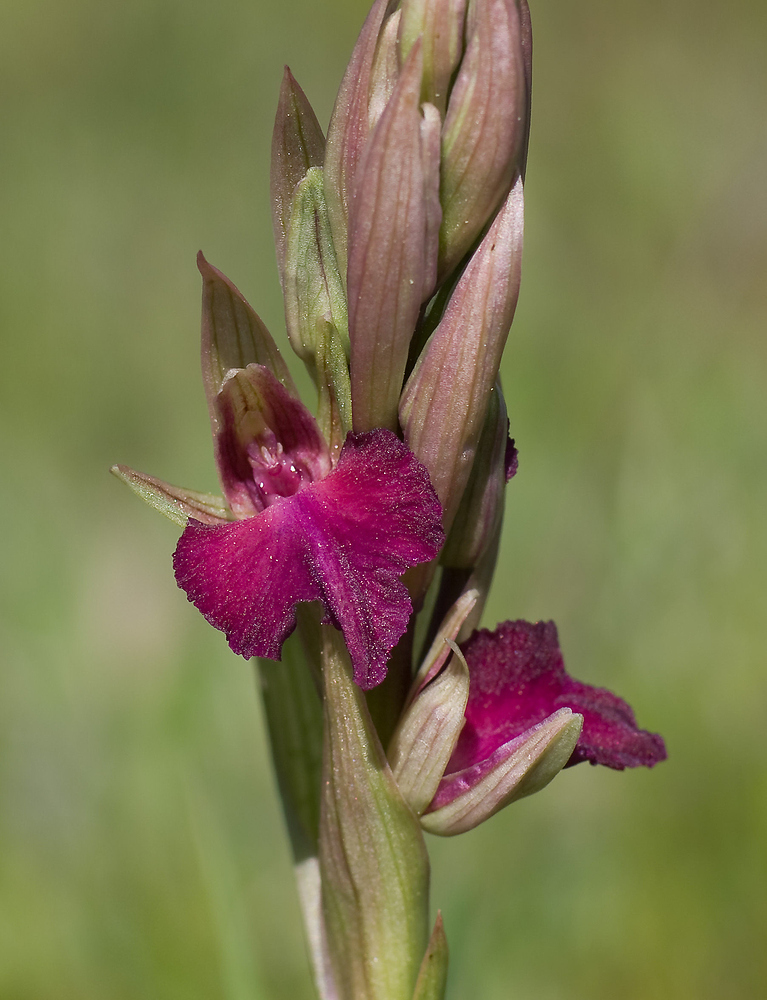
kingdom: Plantae
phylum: Tracheophyta
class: Liliopsida
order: Asparagales
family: Orchidaceae
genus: Serapicamptis
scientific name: Serapicamptis bevilacquae
